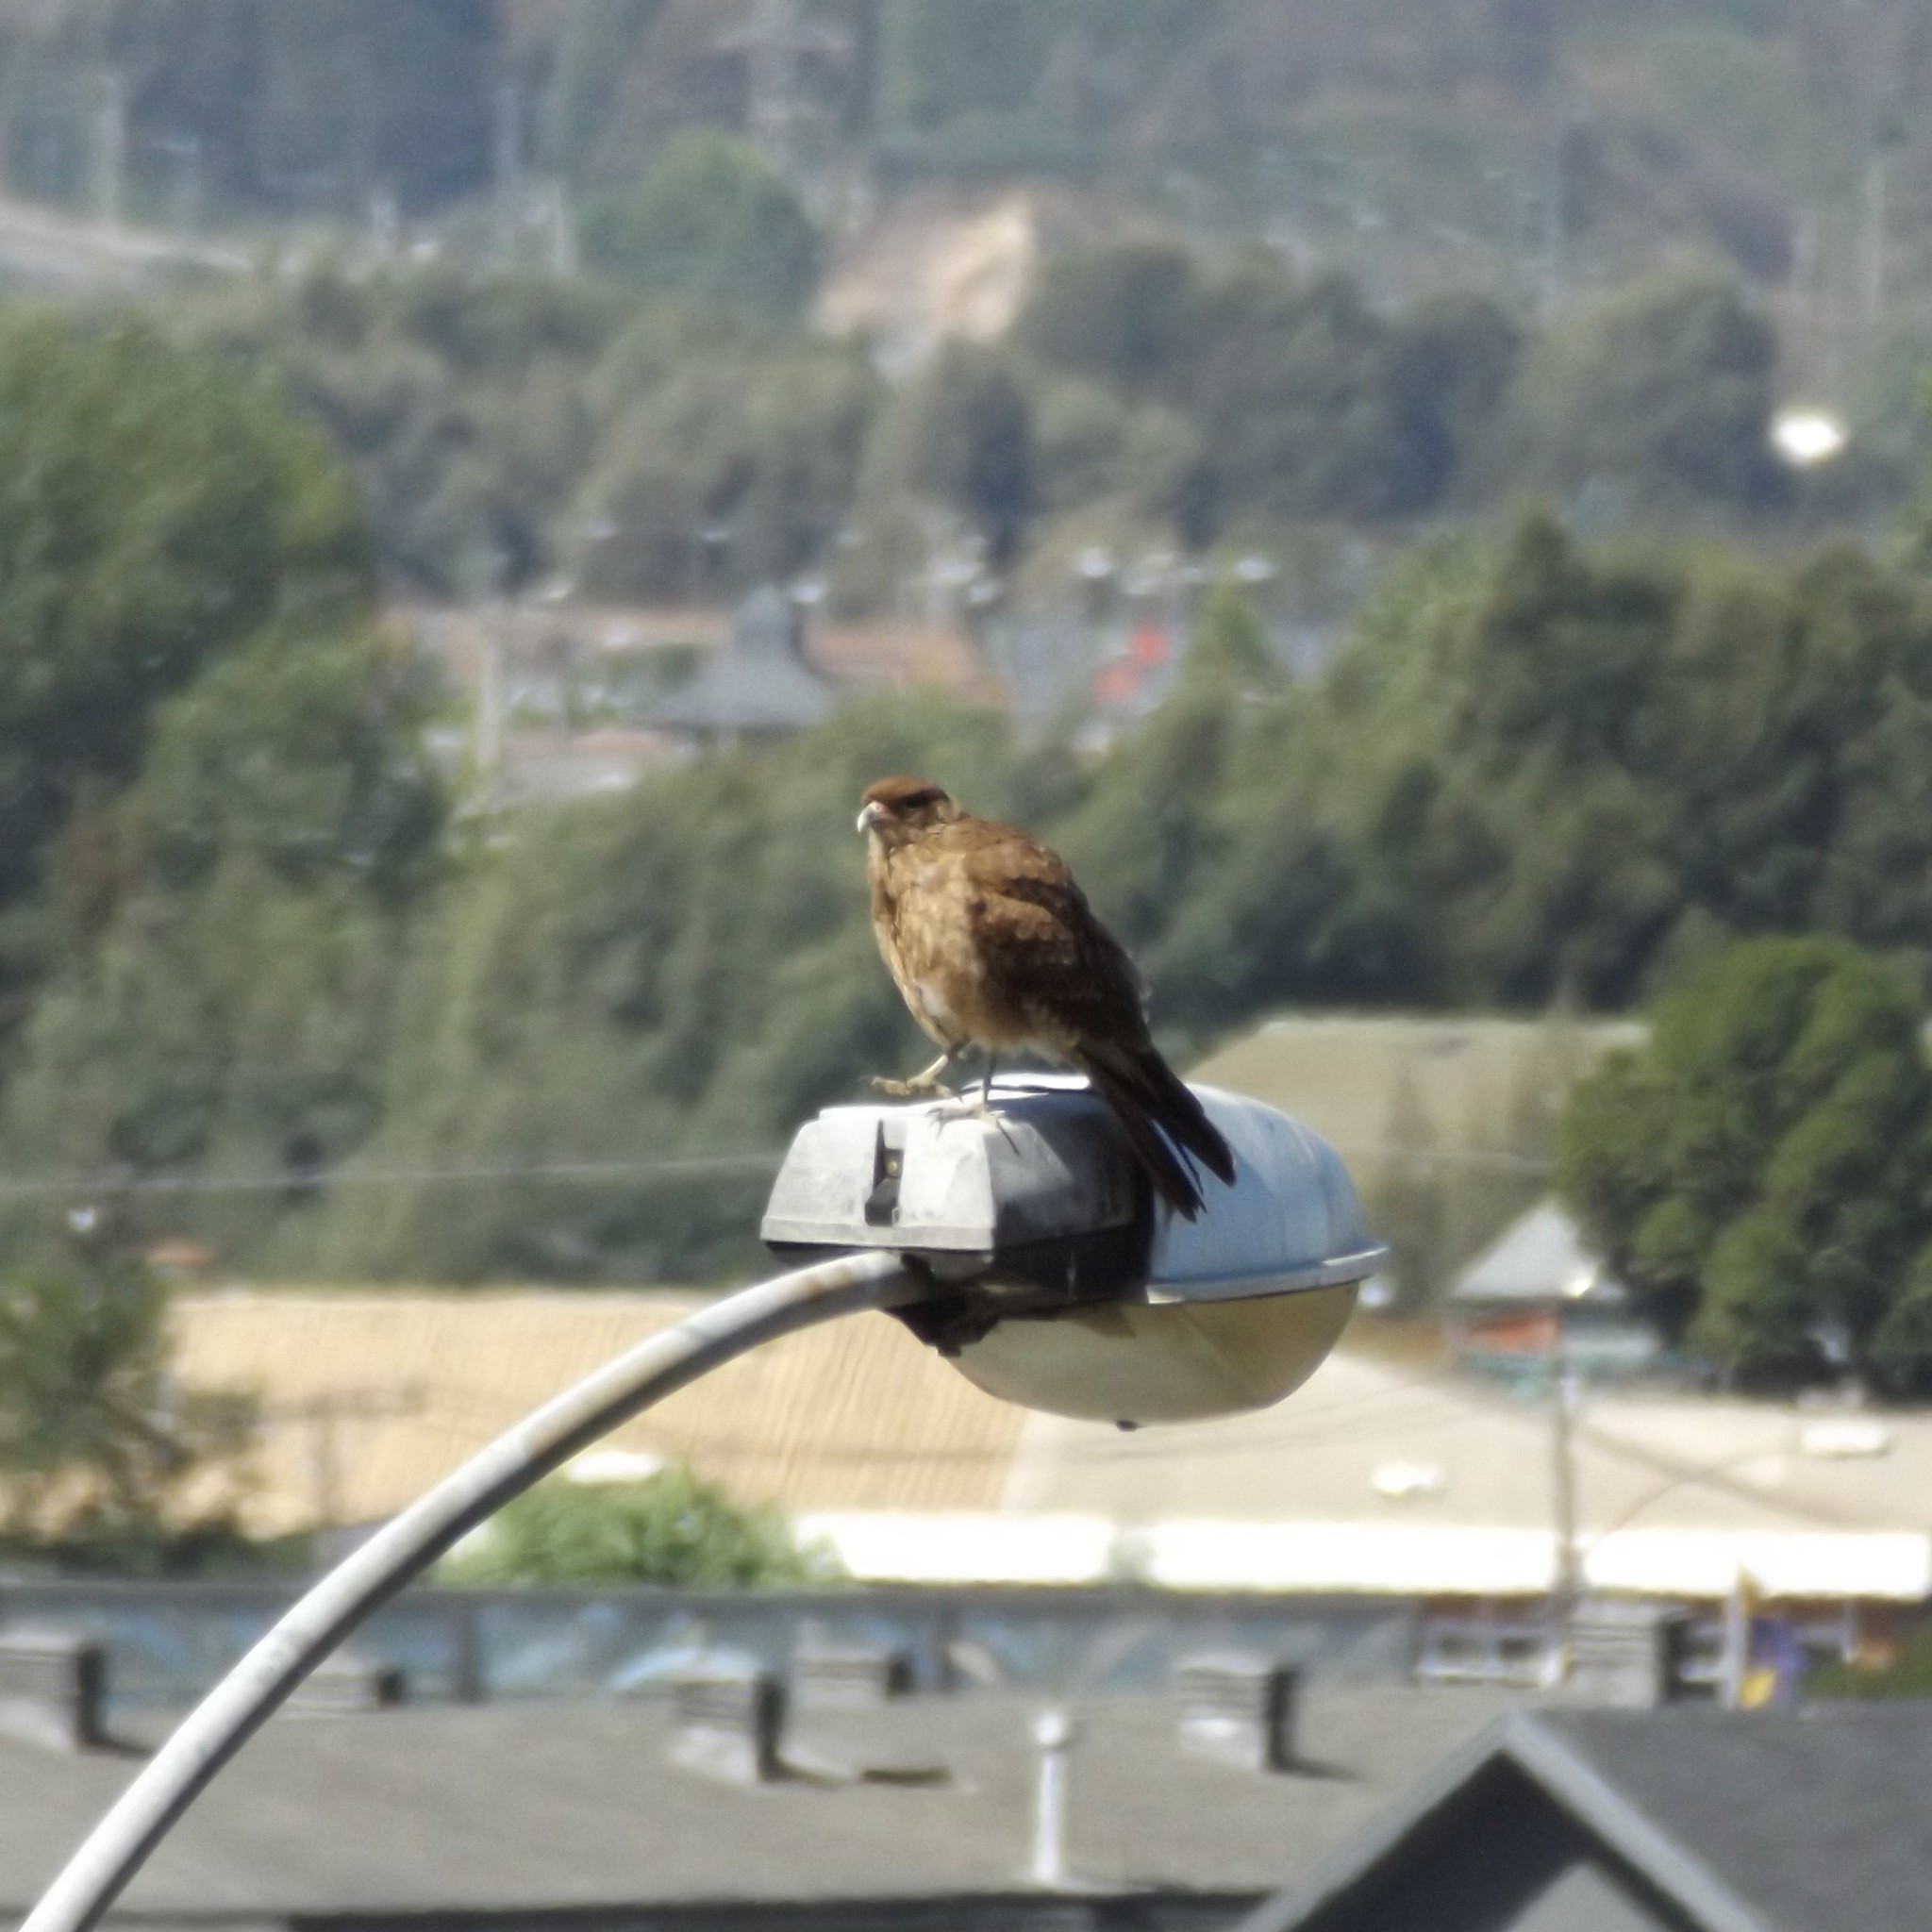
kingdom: Animalia
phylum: Chordata
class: Aves
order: Falconiformes
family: Falconidae
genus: Daptrius
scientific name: Daptrius
